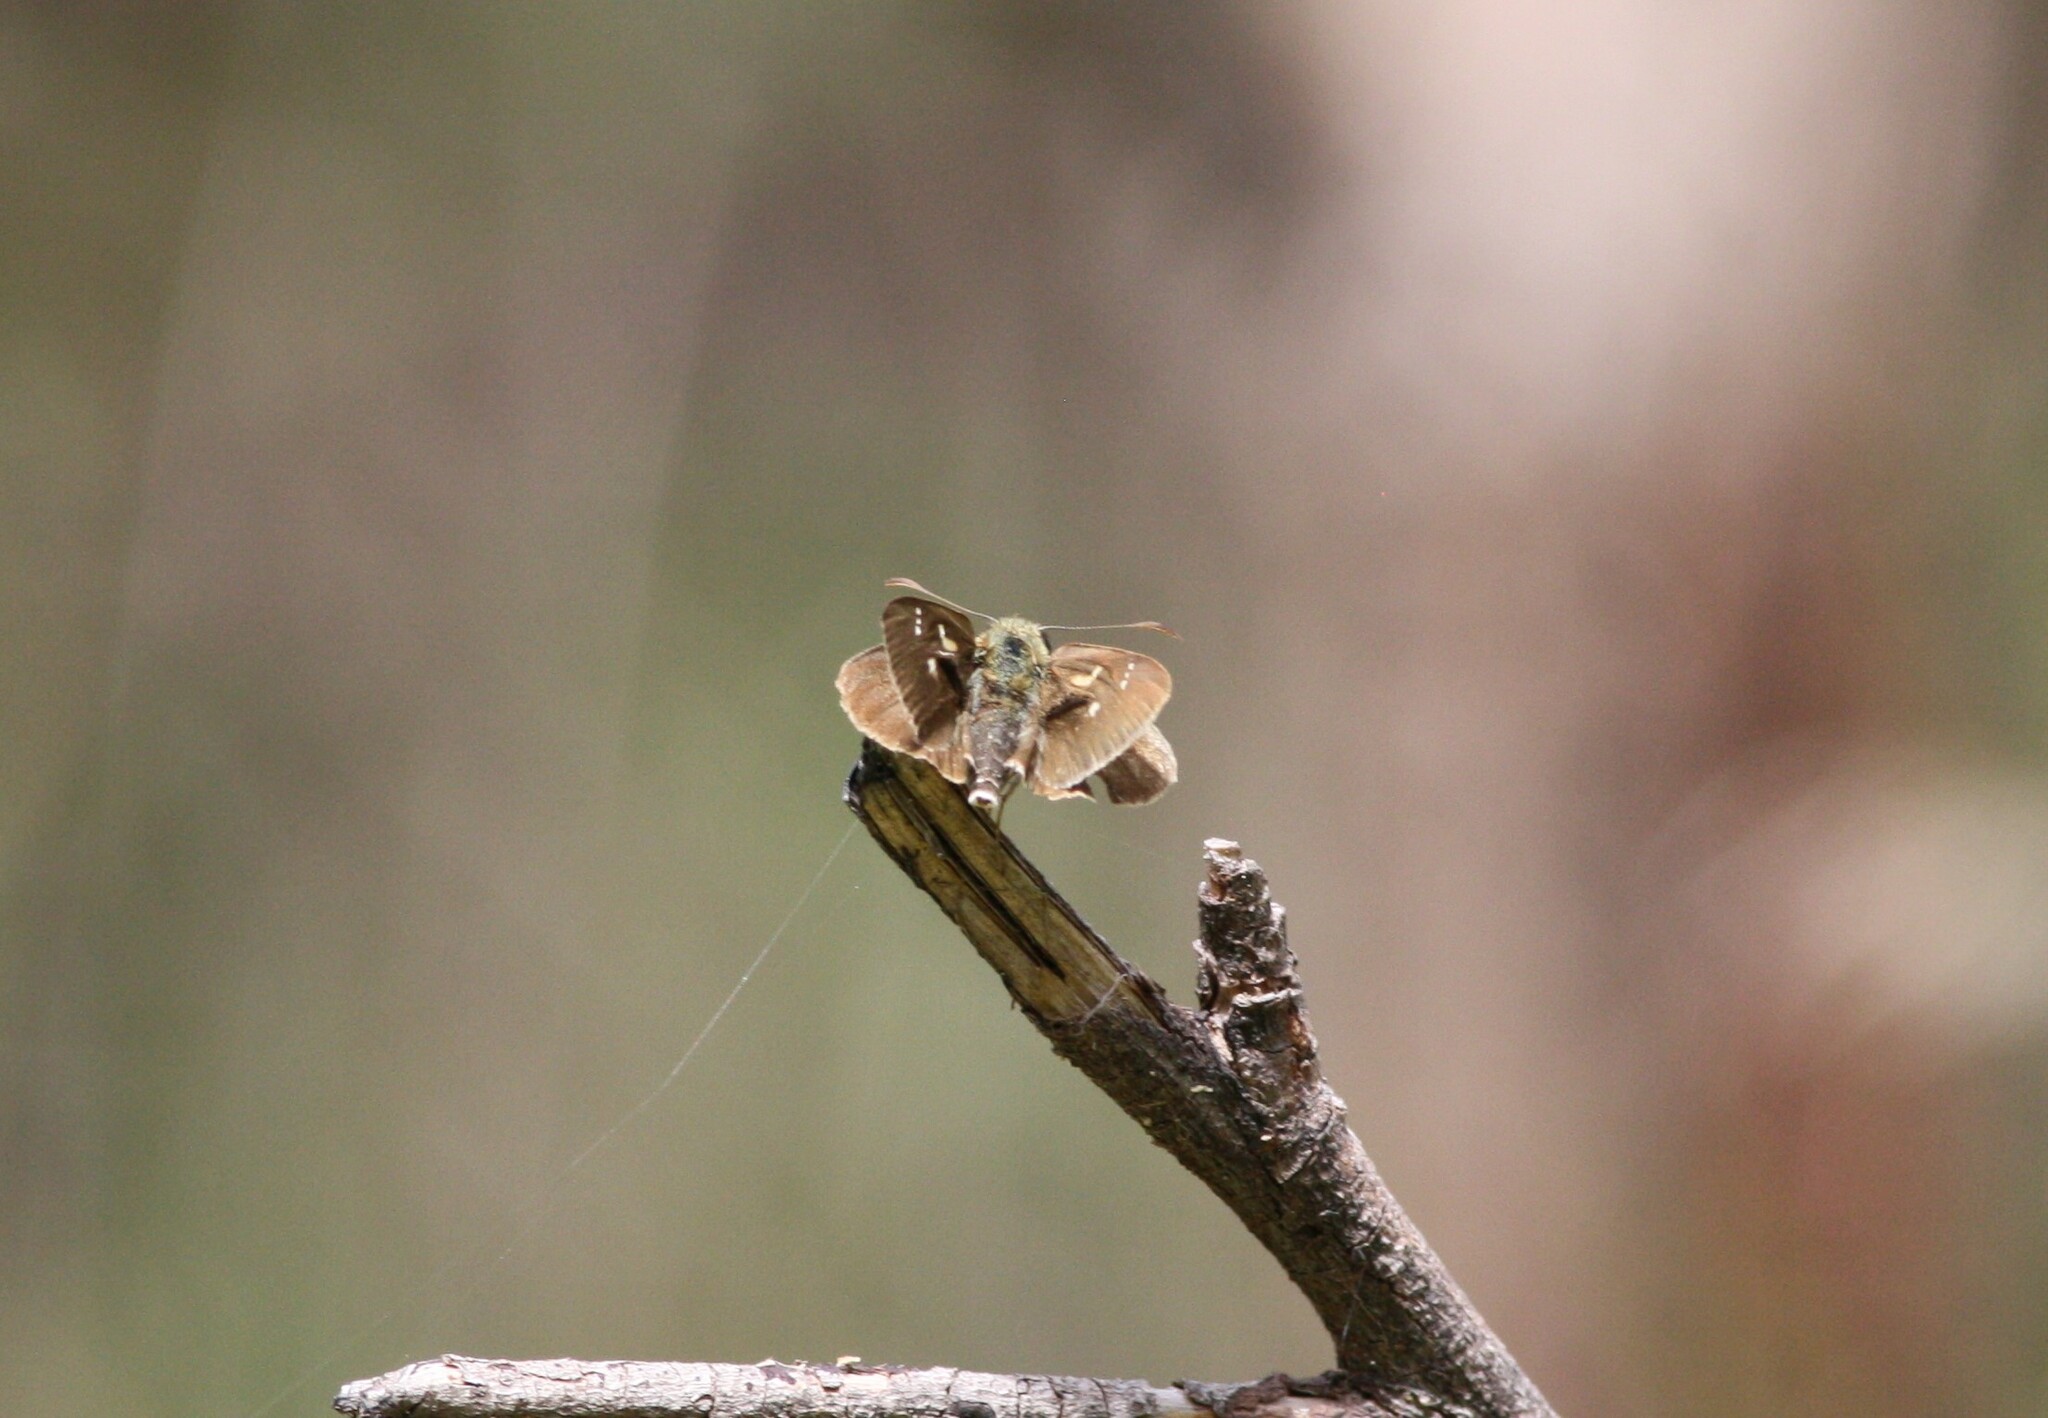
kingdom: Animalia
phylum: Arthropoda
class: Insecta
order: Lepidoptera
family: Hesperiidae
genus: Toxidia
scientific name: Toxidia
